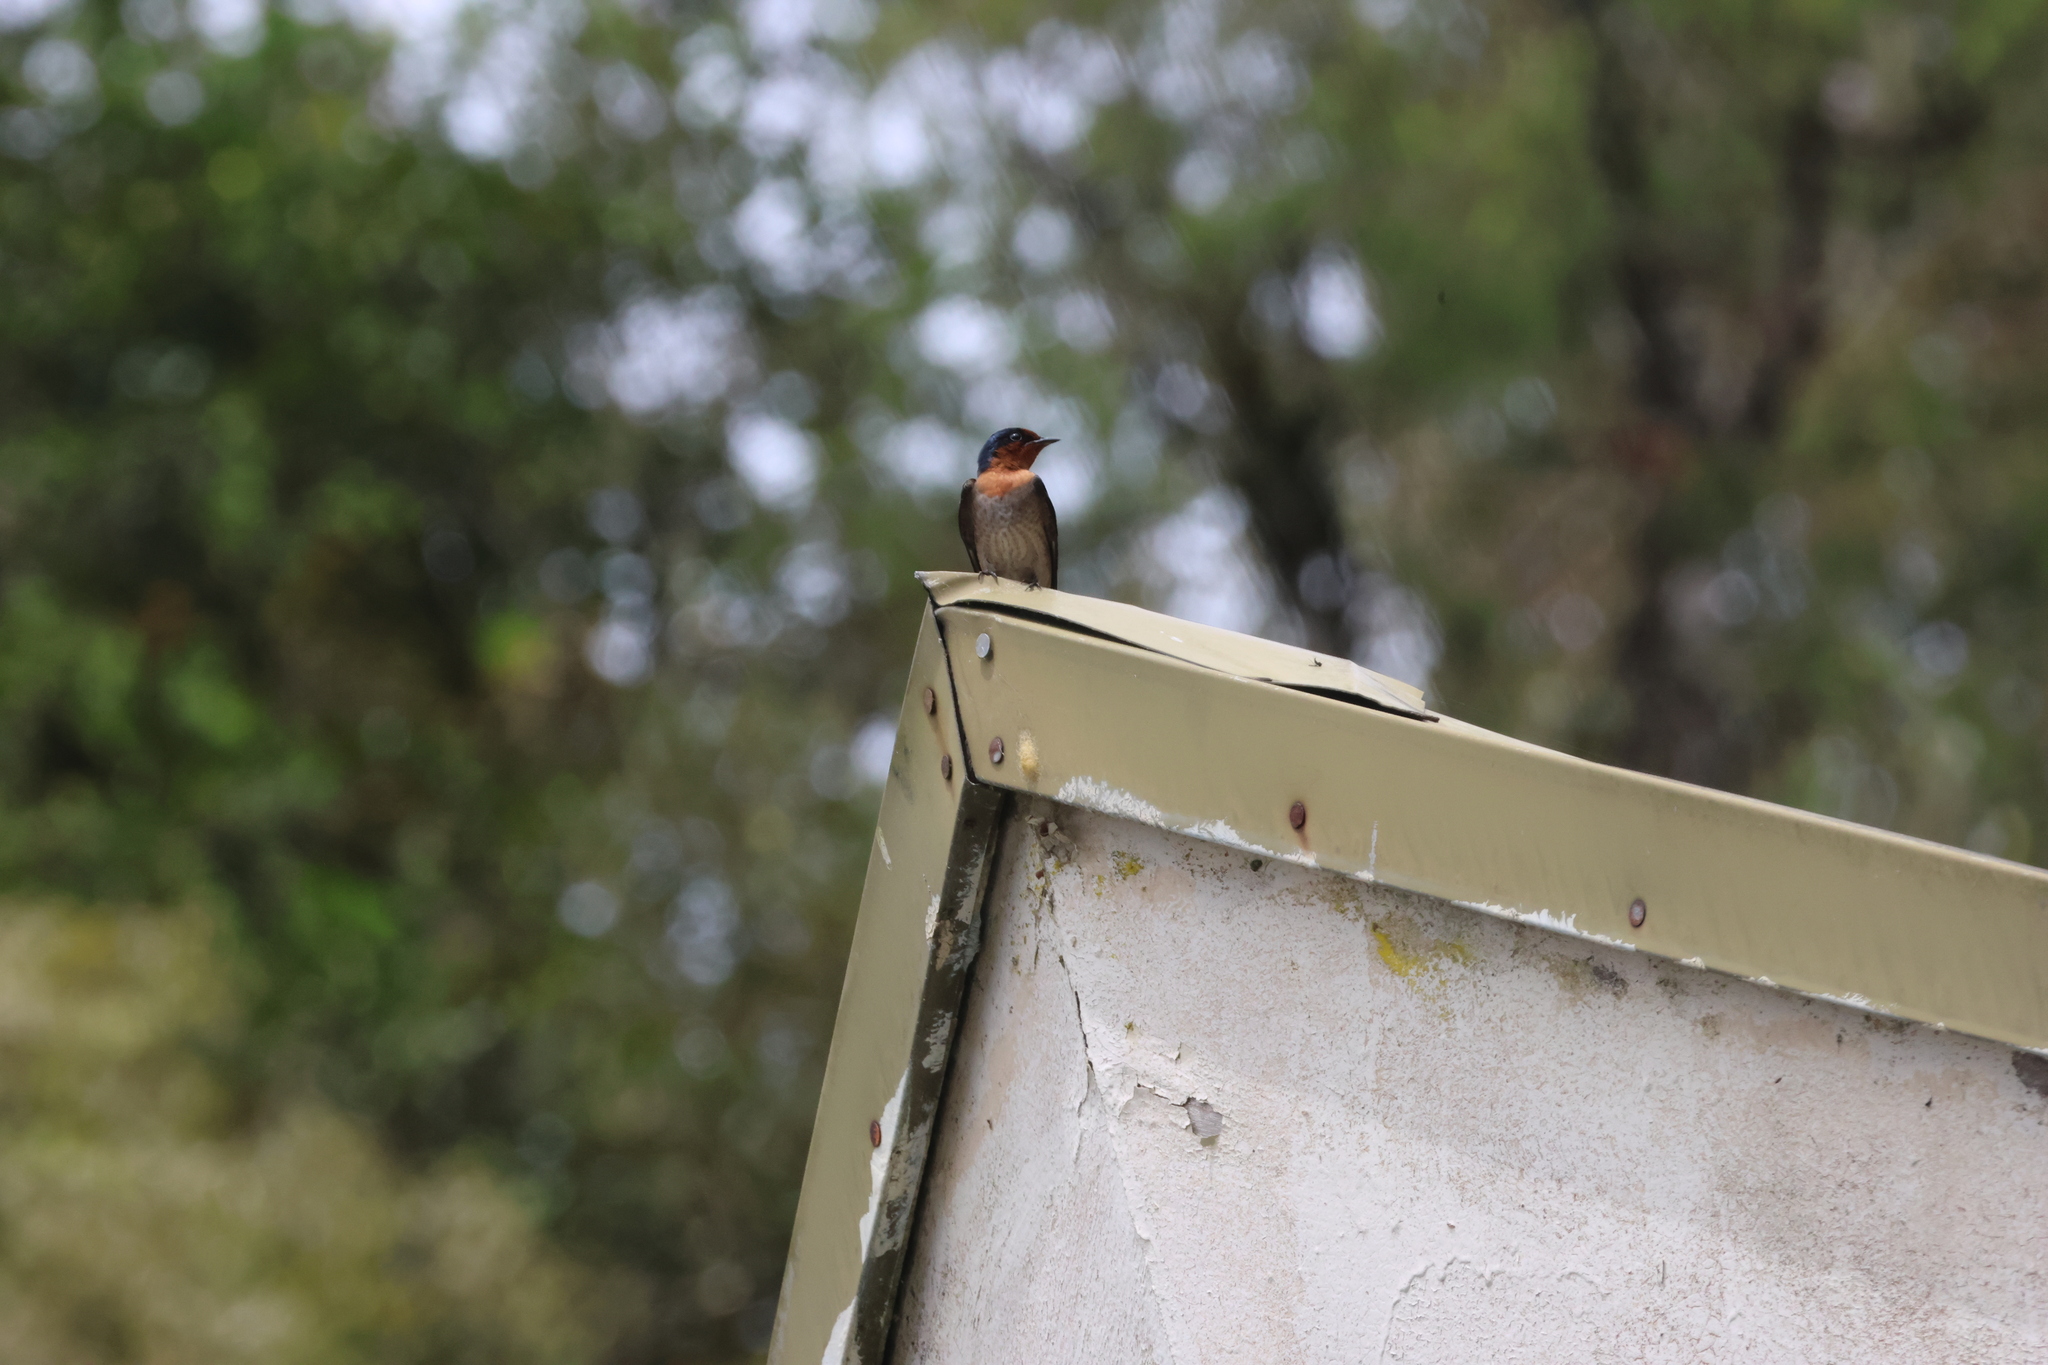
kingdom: Animalia
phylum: Chordata
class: Aves
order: Passeriformes
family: Hirundinidae
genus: Hirundo
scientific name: Hirundo tahitica
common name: Pacific swallow
